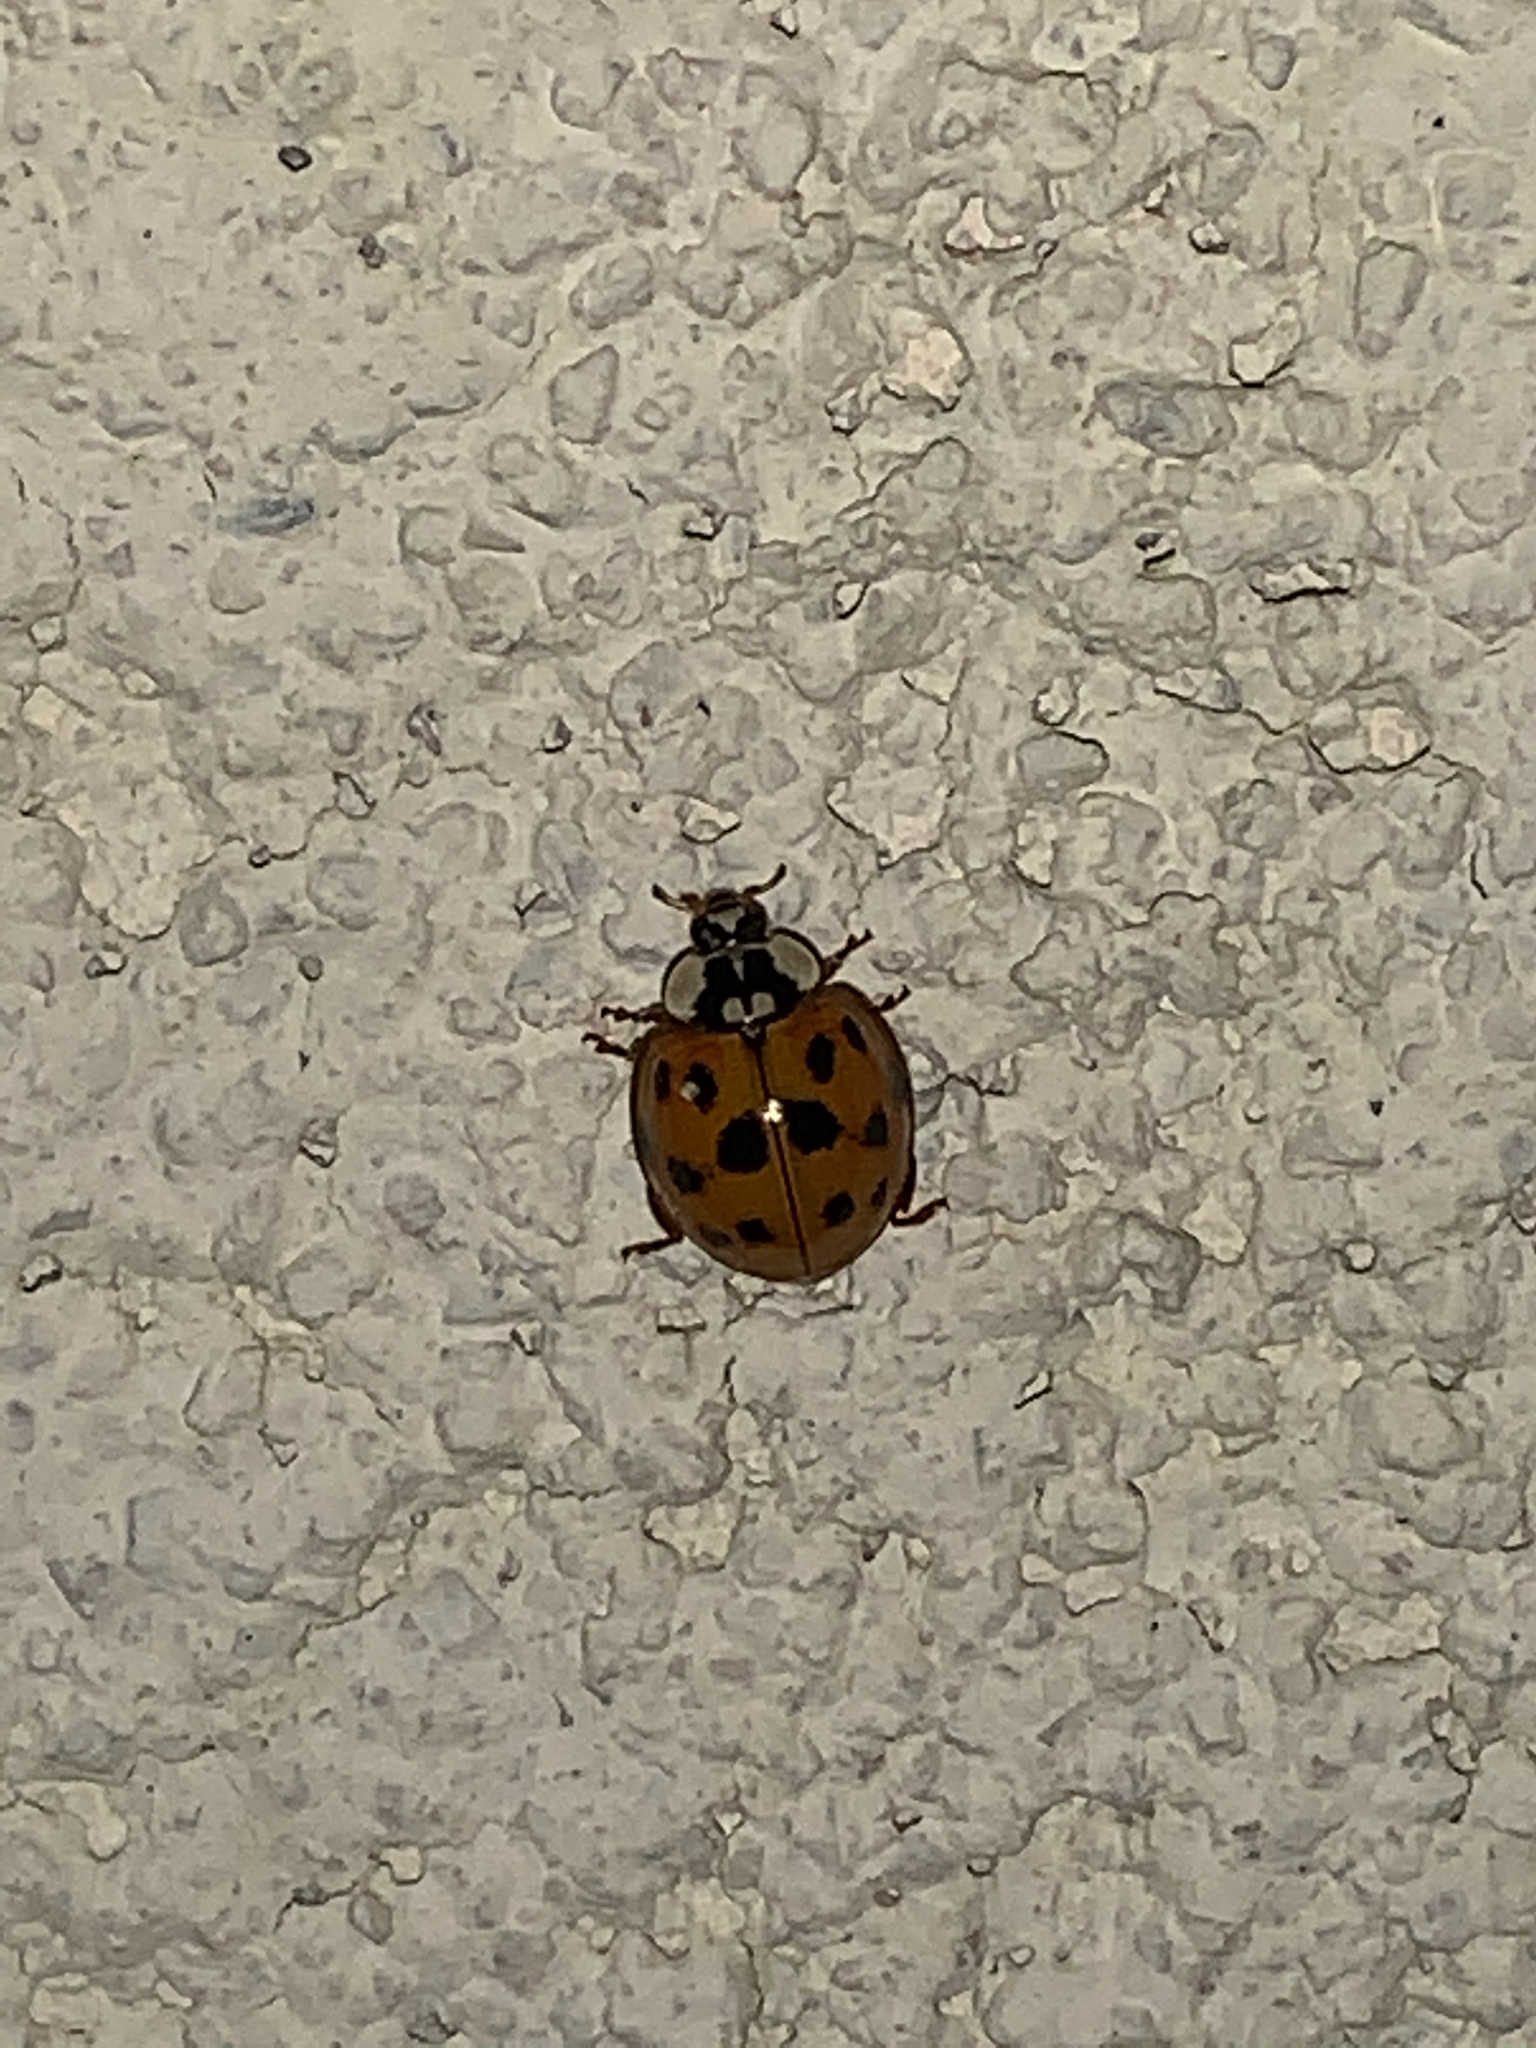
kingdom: Animalia
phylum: Arthropoda
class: Insecta
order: Coleoptera
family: Coccinellidae
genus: Harmonia
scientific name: Harmonia axyridis
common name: Harlequin ladybird
